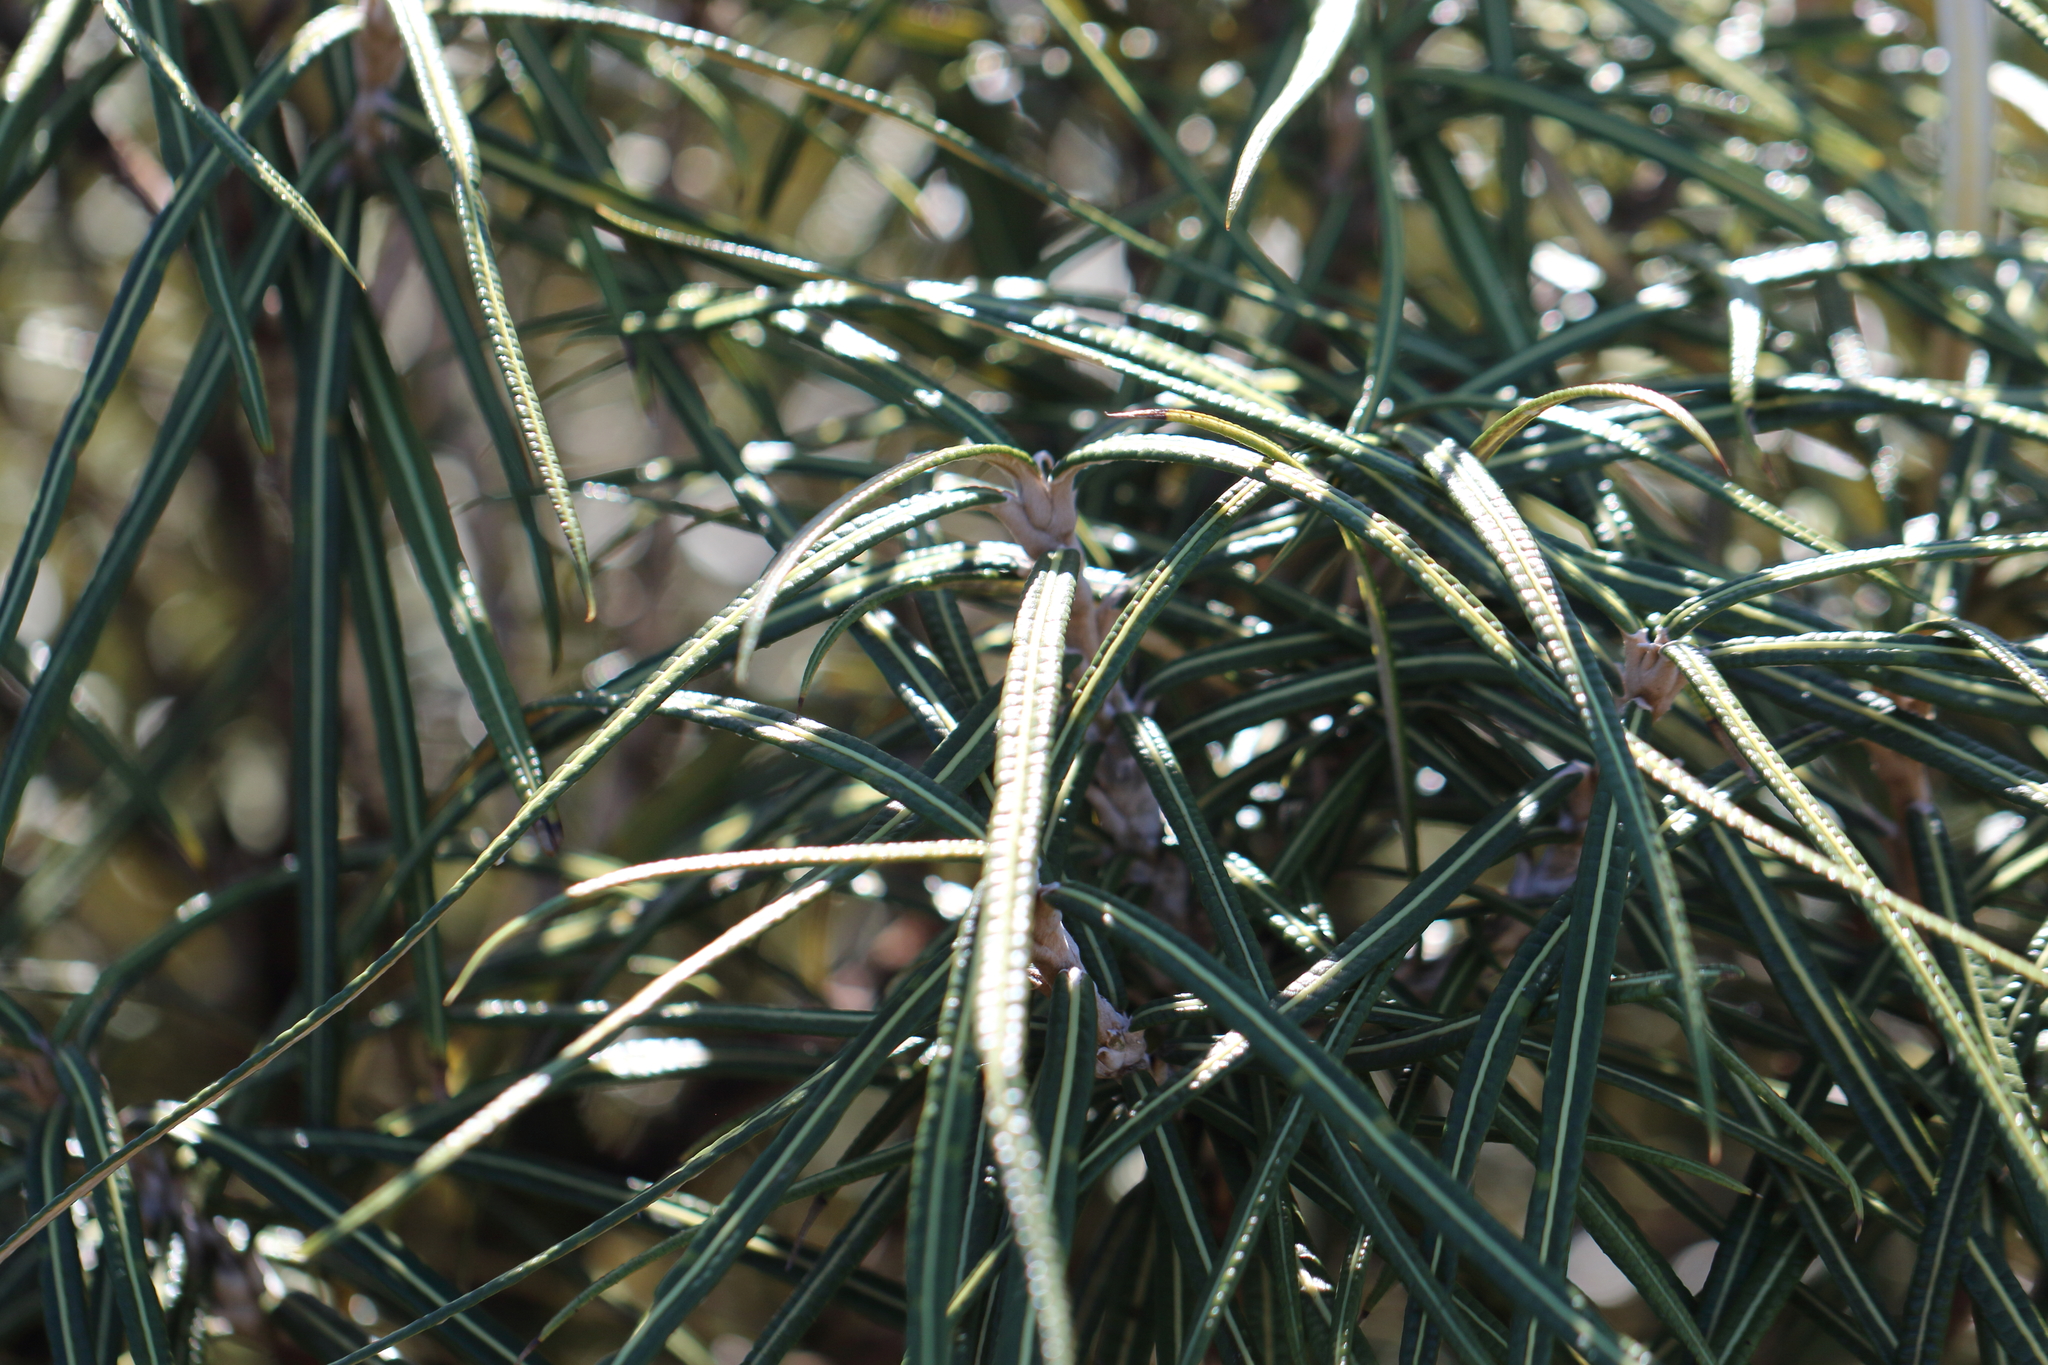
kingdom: Plantae
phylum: Tracheophyta
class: Magnoliopsida
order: Asterales
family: Asteraceae
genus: Olearia
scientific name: Olearia lacunosa
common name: Lancewood tree daisy
